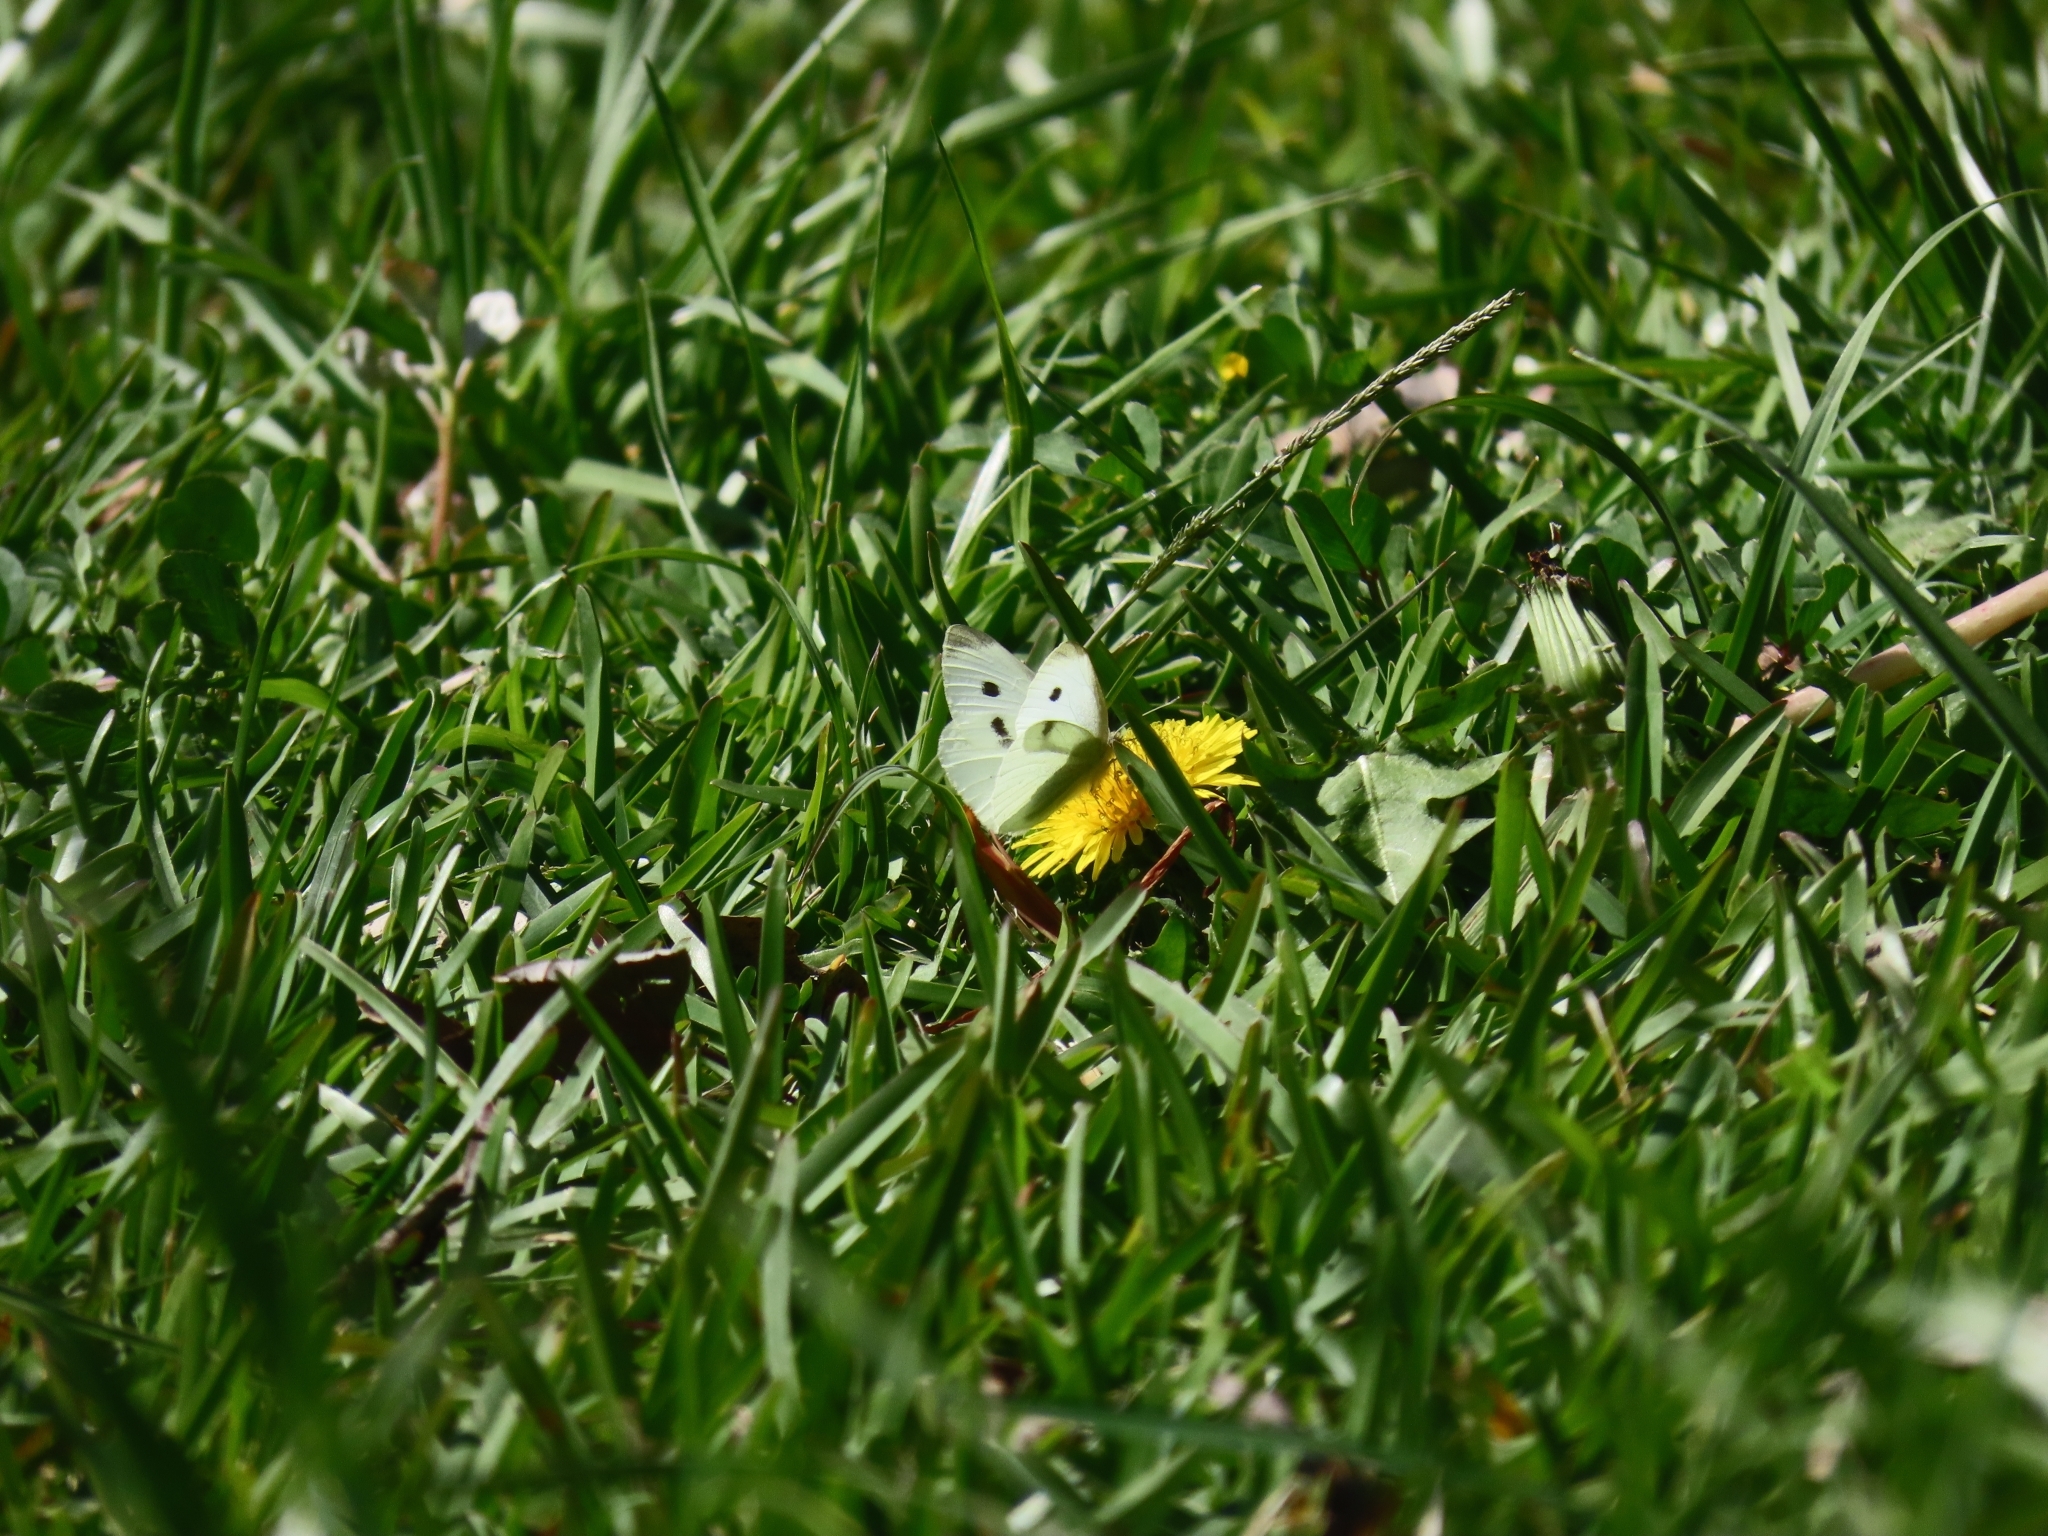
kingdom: Animalia
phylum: Arthropoda
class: Insecta
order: Lepidoptera
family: Pieridae
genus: Pieris
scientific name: Pieris rapae
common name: Small white
